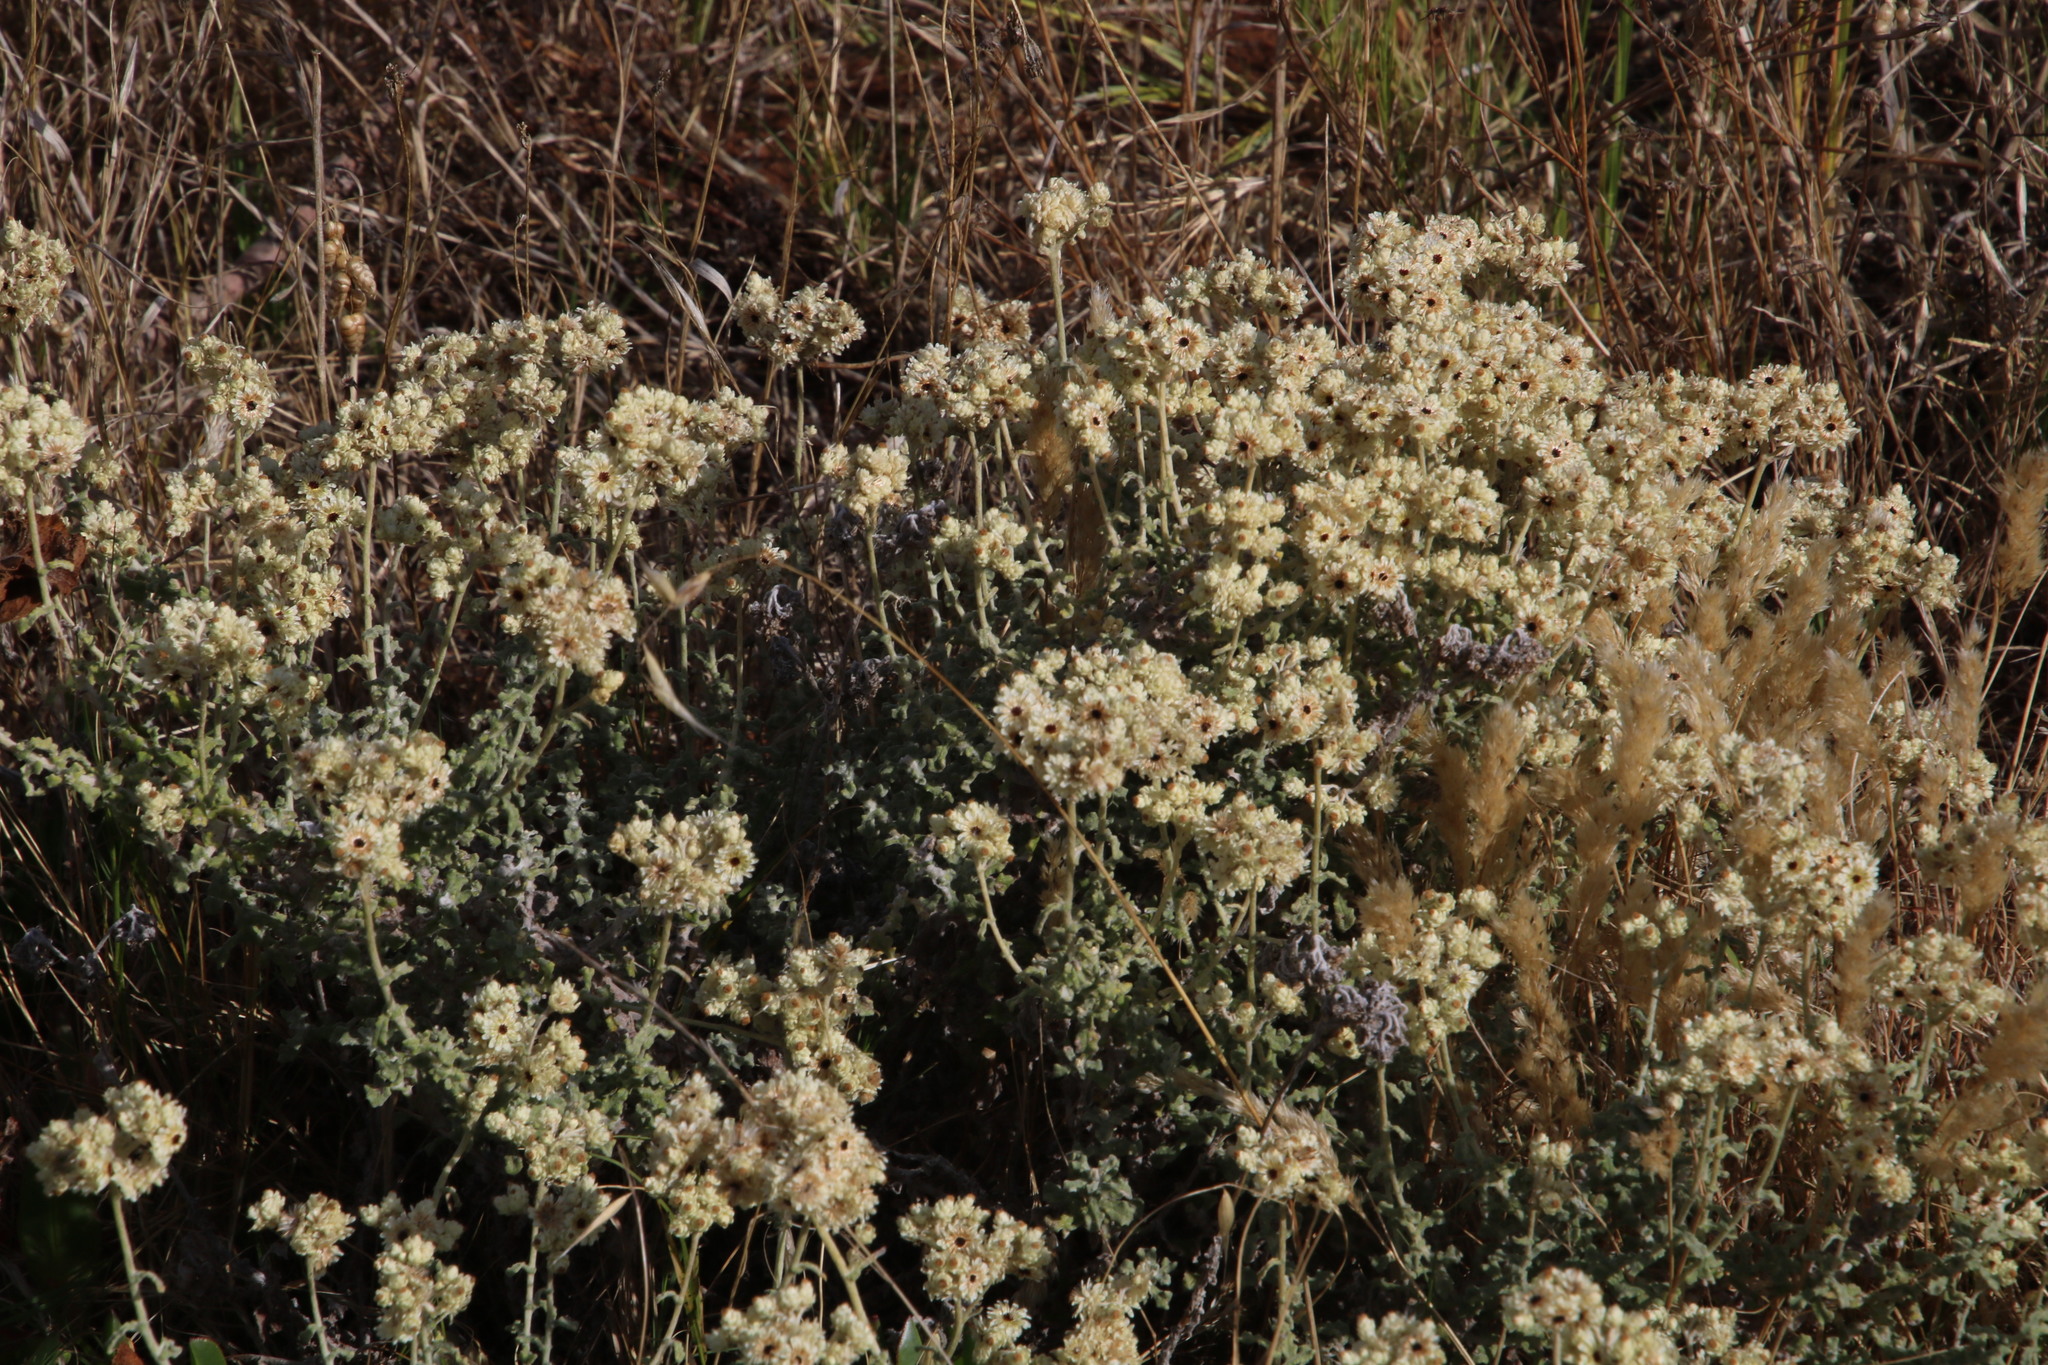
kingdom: Plantae
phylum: Tracheophyta
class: Magnoliopsida
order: Asterales
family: Asteraceae
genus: Helichrysum
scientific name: Helichrysum patulum
